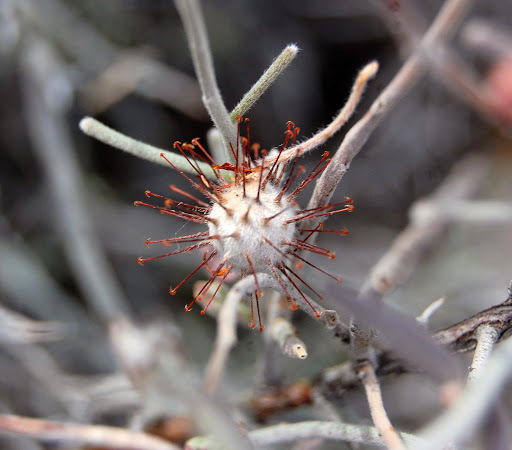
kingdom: Plantae
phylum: Tracheophyta
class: Magnoliopsida
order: Zygophyllales
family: Krameriaceae
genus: Krameria
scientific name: Krameria bicolor
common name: White ratany
